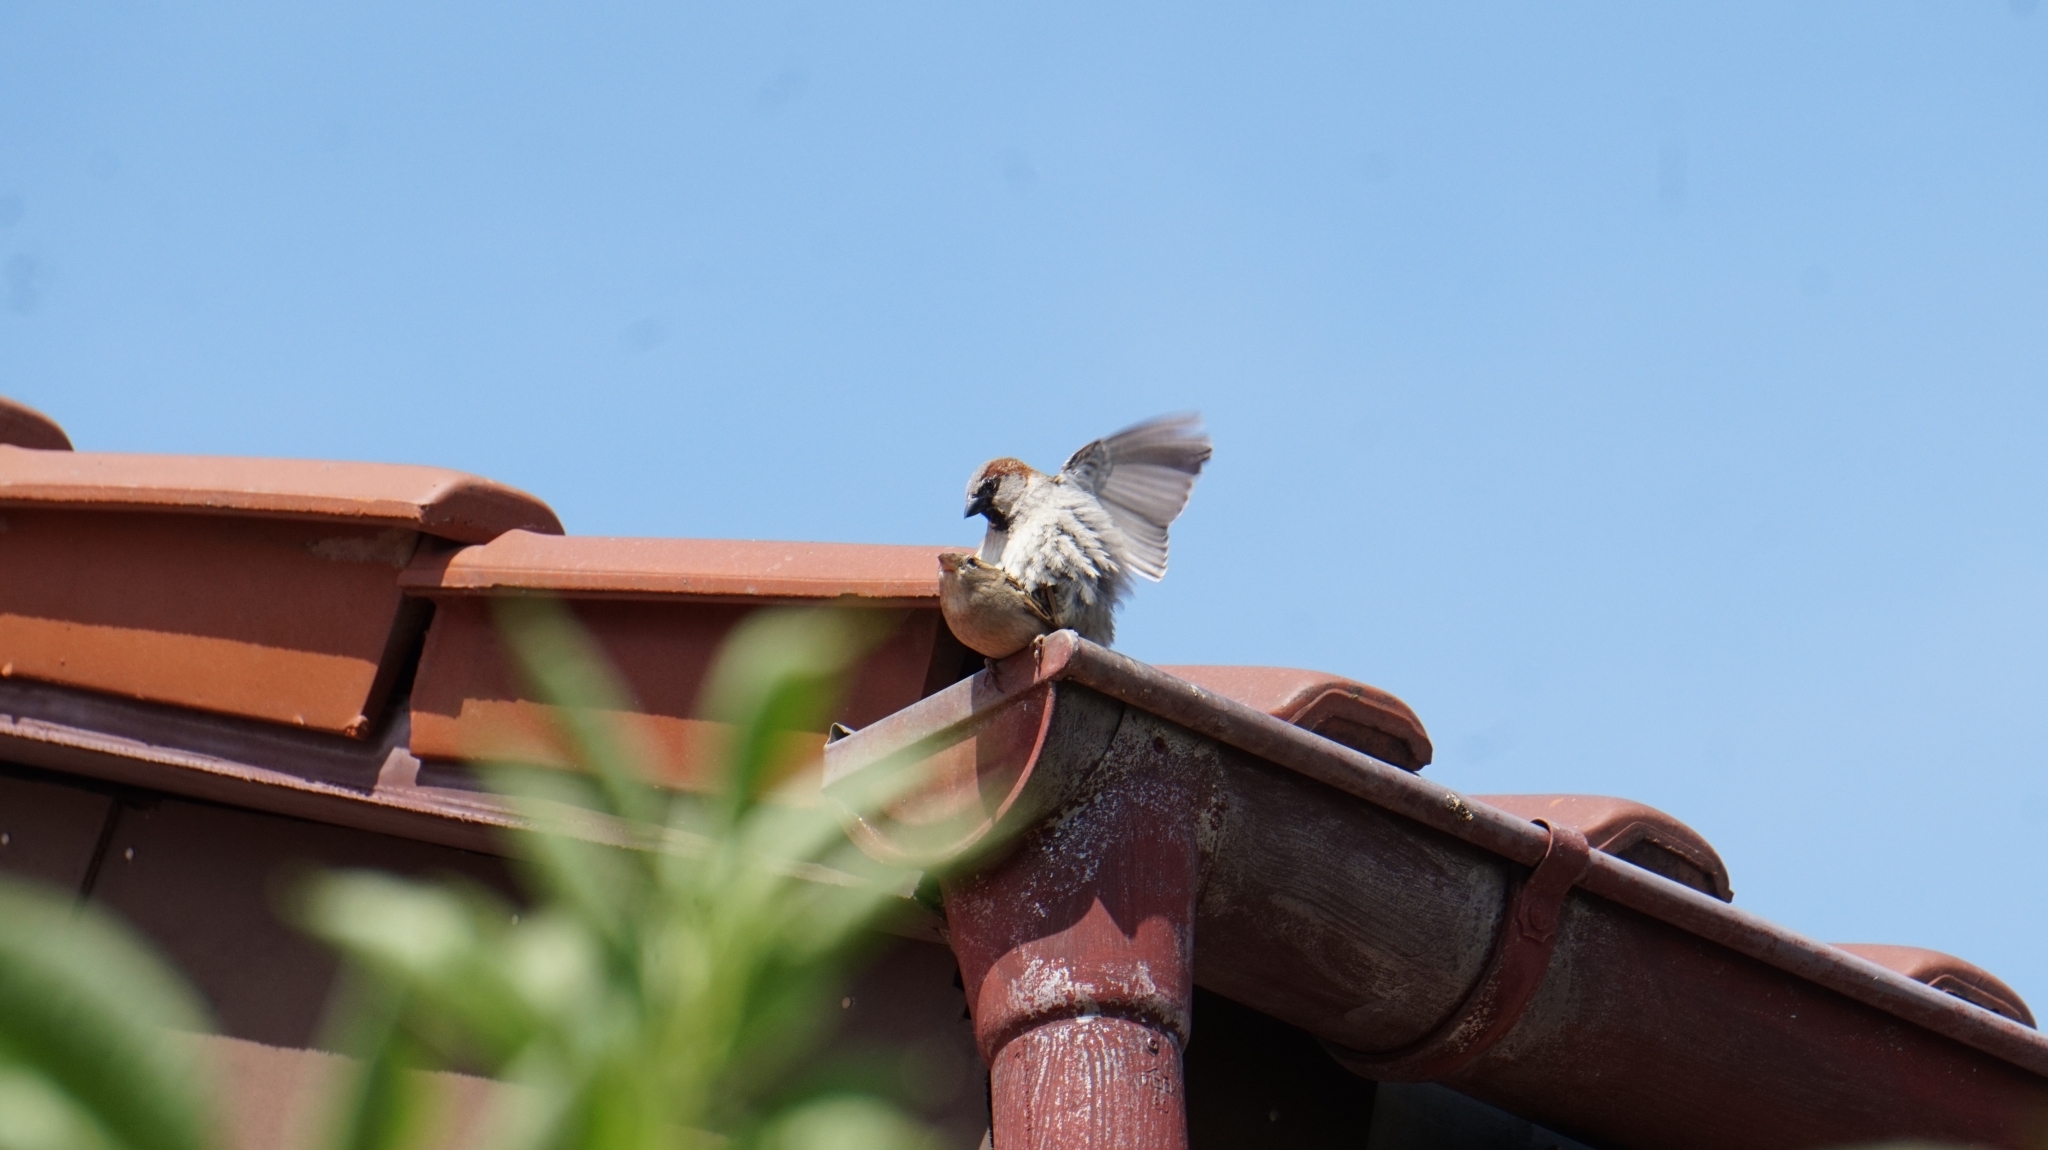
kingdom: Animalia
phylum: Chordata
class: Aves
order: Passeriformes
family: Passeridae
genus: Passer
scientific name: Passer domesticus
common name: House sparrow
